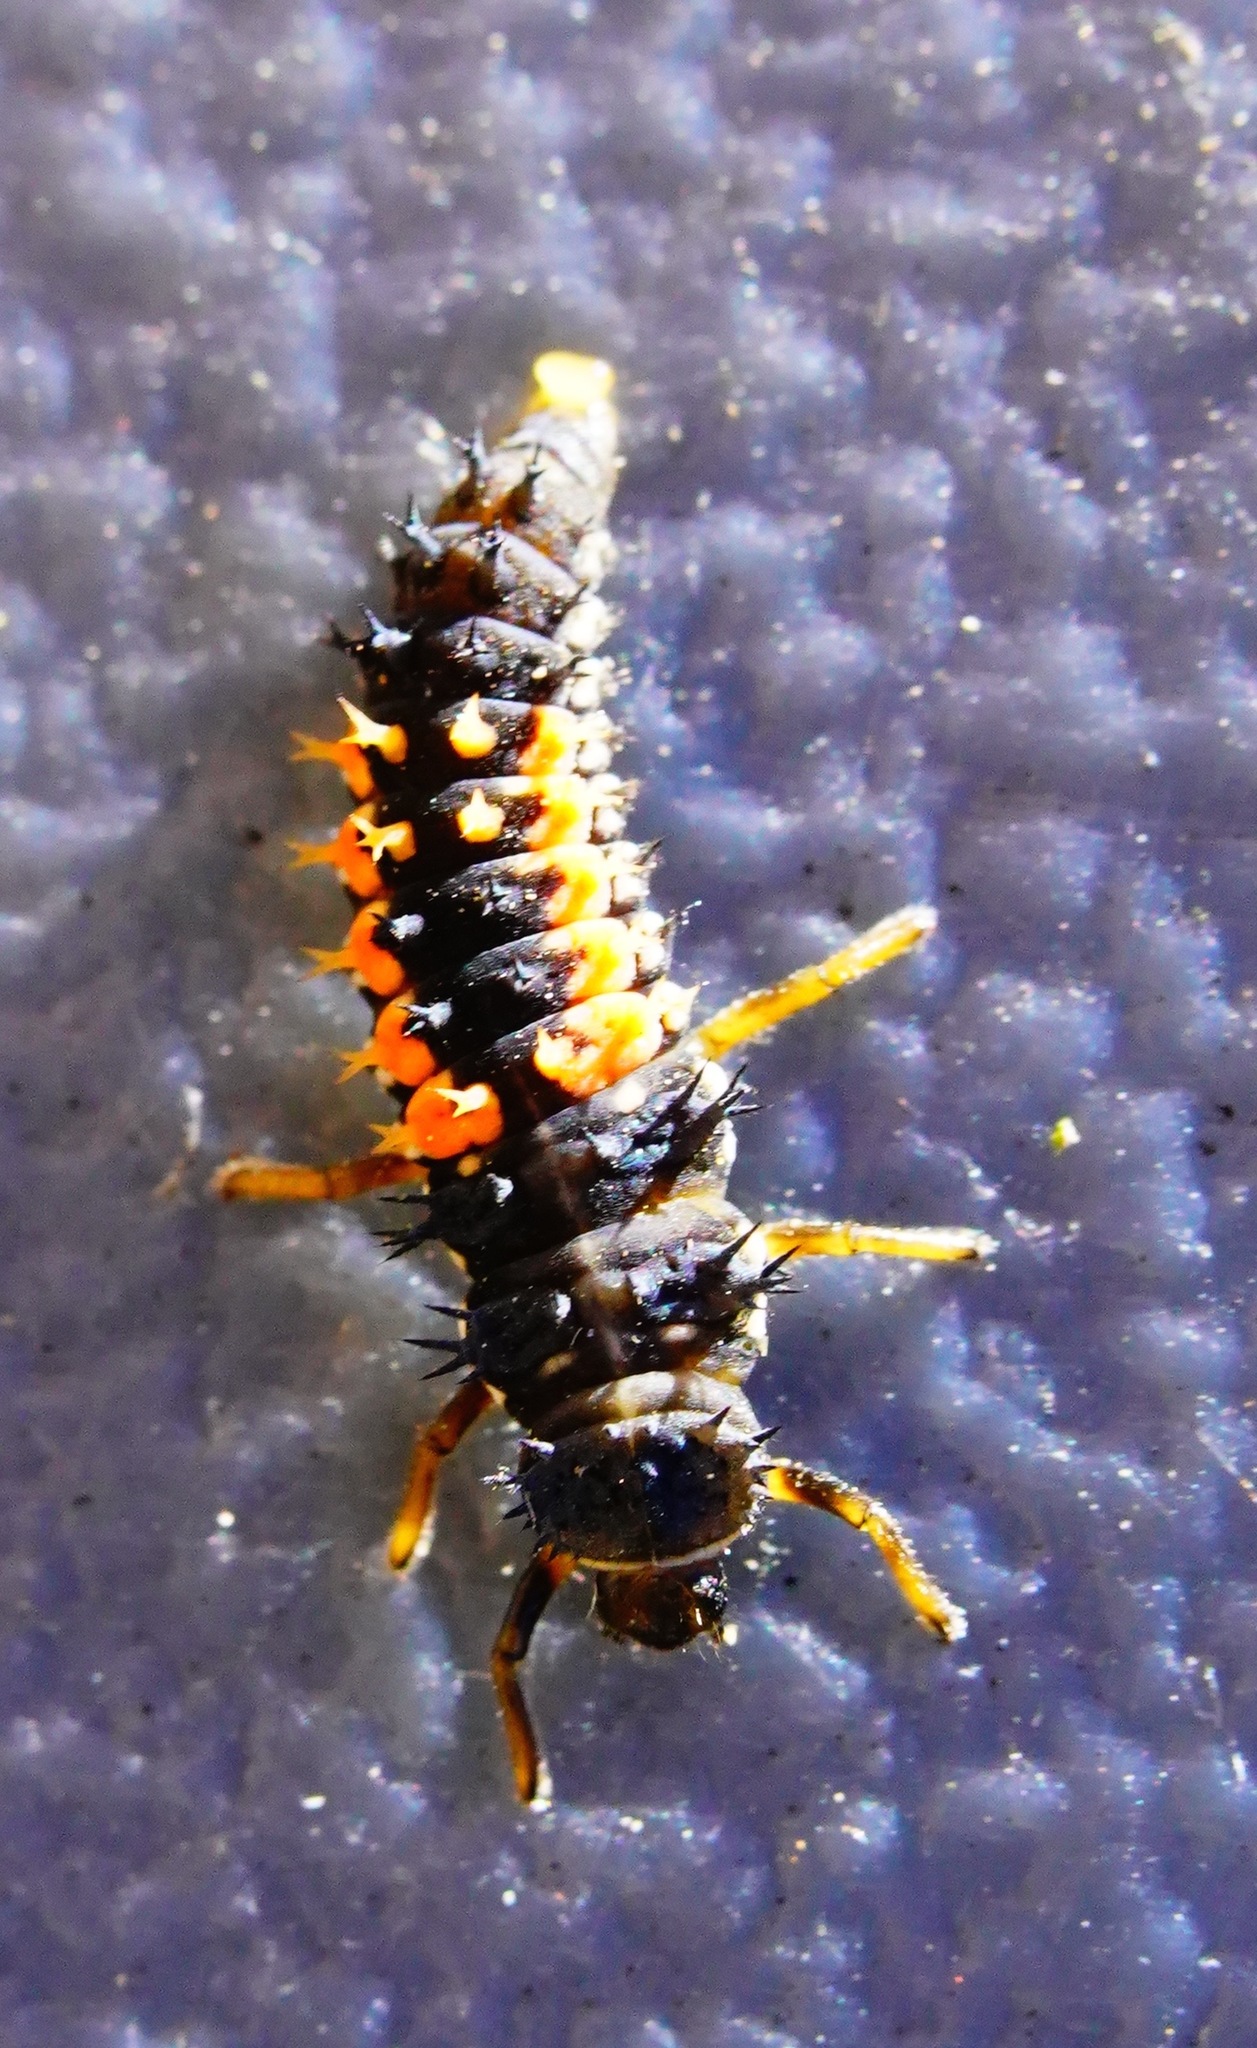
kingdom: Animalia
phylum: Arthropoda
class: Insecta
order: Coleoptera
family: Coccinellidae
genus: Harmonia
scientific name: Harmonia axyridis
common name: Harlequin ladybird
